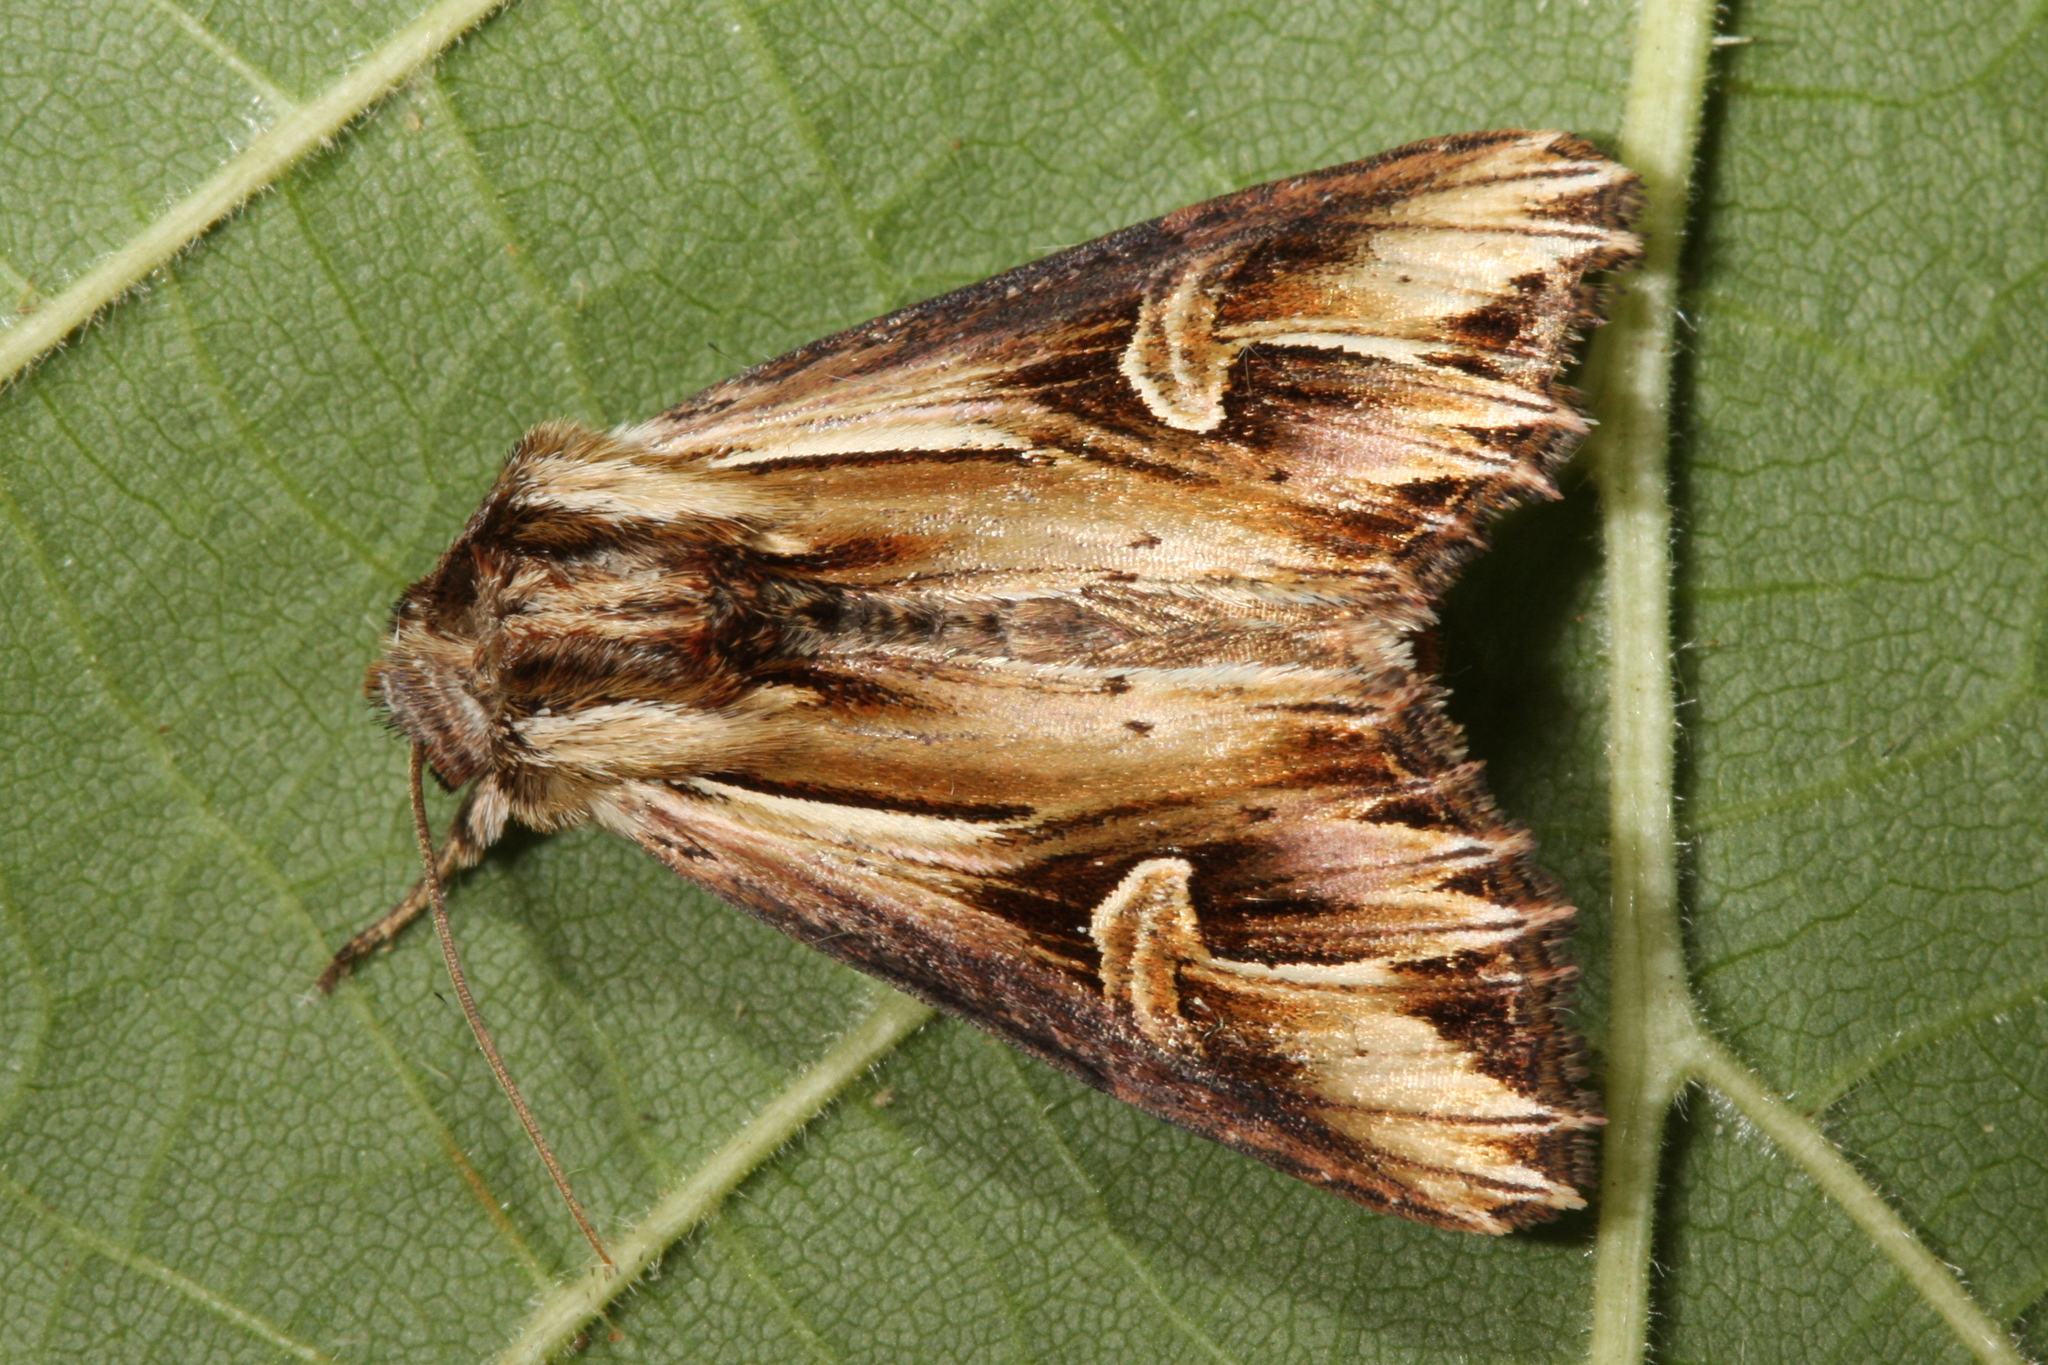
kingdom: Animalia
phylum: Arthropoda
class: Insecta
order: Lepidoptera
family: Noctuidae
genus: Actinotia
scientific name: Actinotia polyodon
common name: Purple cloud
